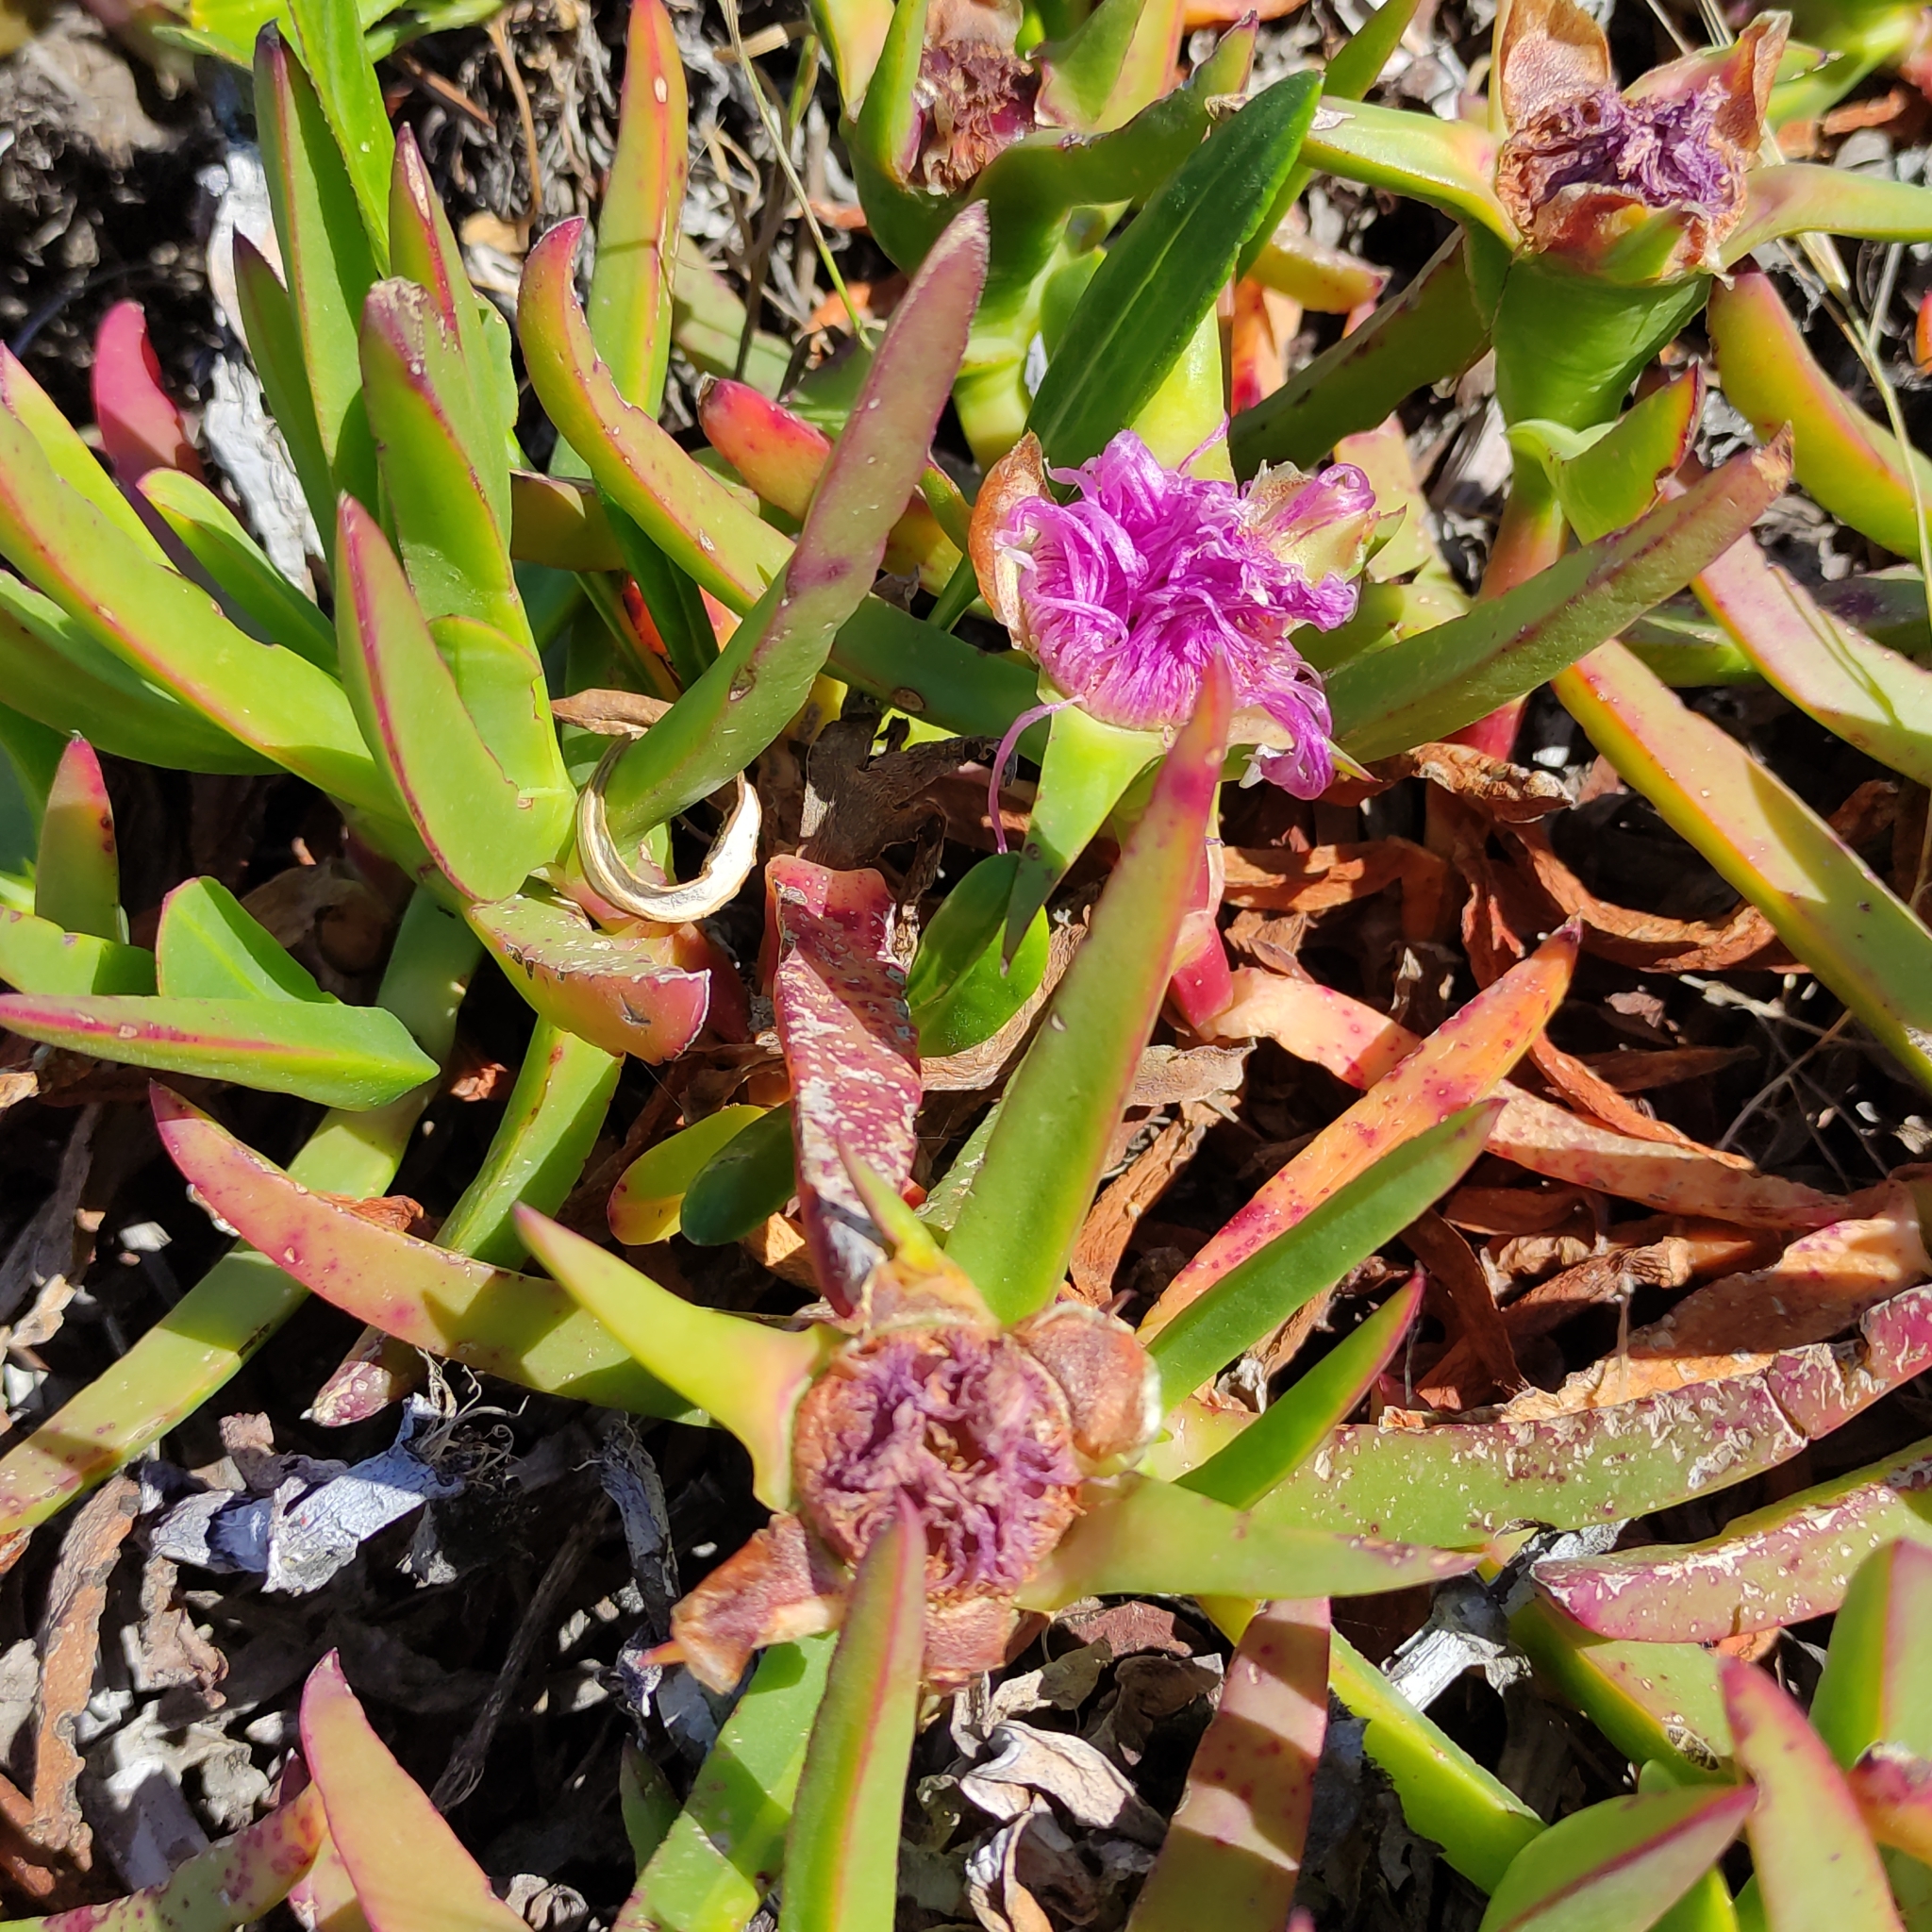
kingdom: Plantae
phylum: Tracheophyta
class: Magnoliopsida
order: Caryophyllales
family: Aizoaceae
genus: Carpobrotus
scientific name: Carpobrotus chilensis
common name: Sea fig
